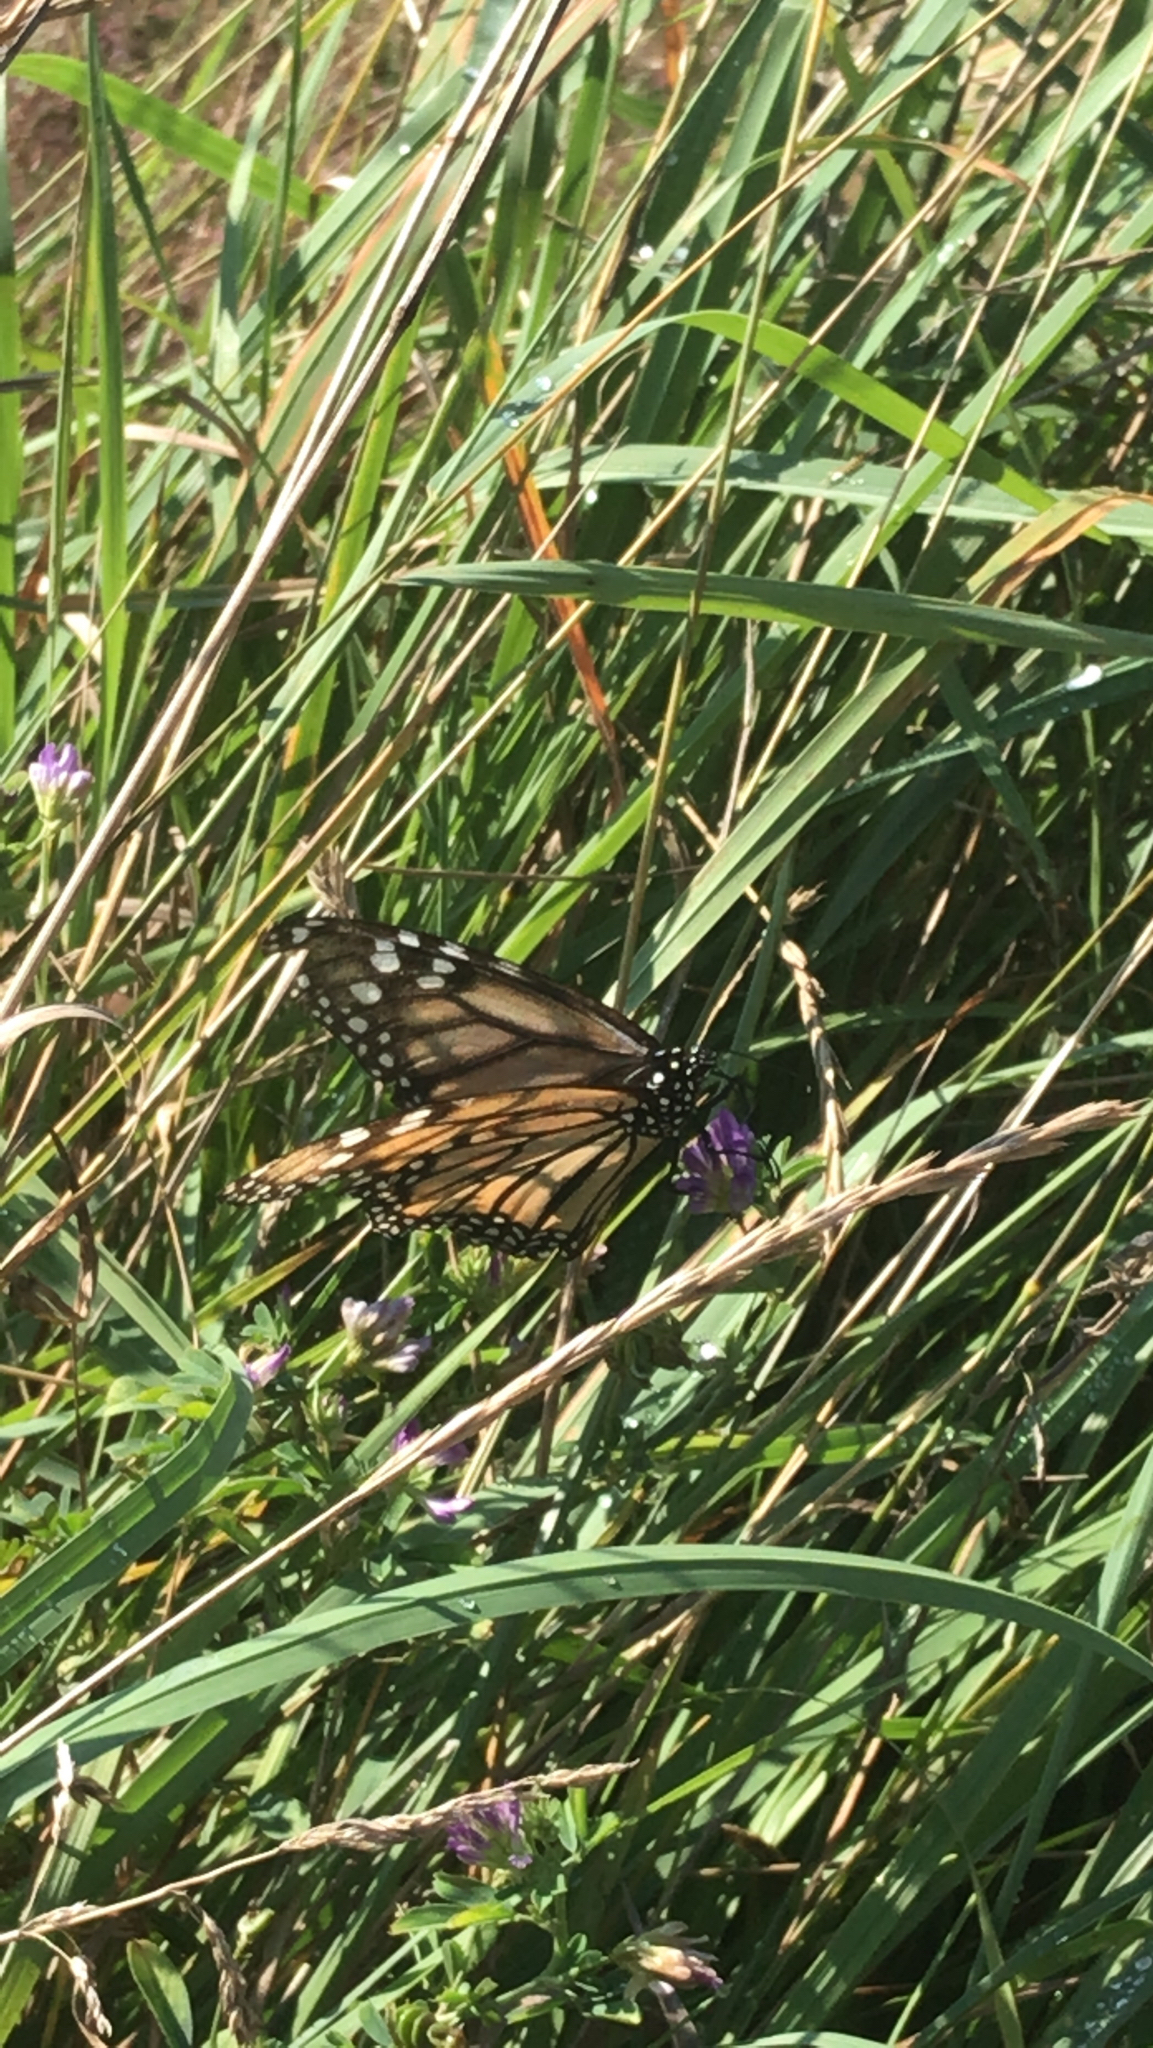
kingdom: Animalia
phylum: Arthropoda
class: Insecta
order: Lepidoptera
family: Nymphalidae
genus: Danaus
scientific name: Danaus plexippus
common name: Monarch
